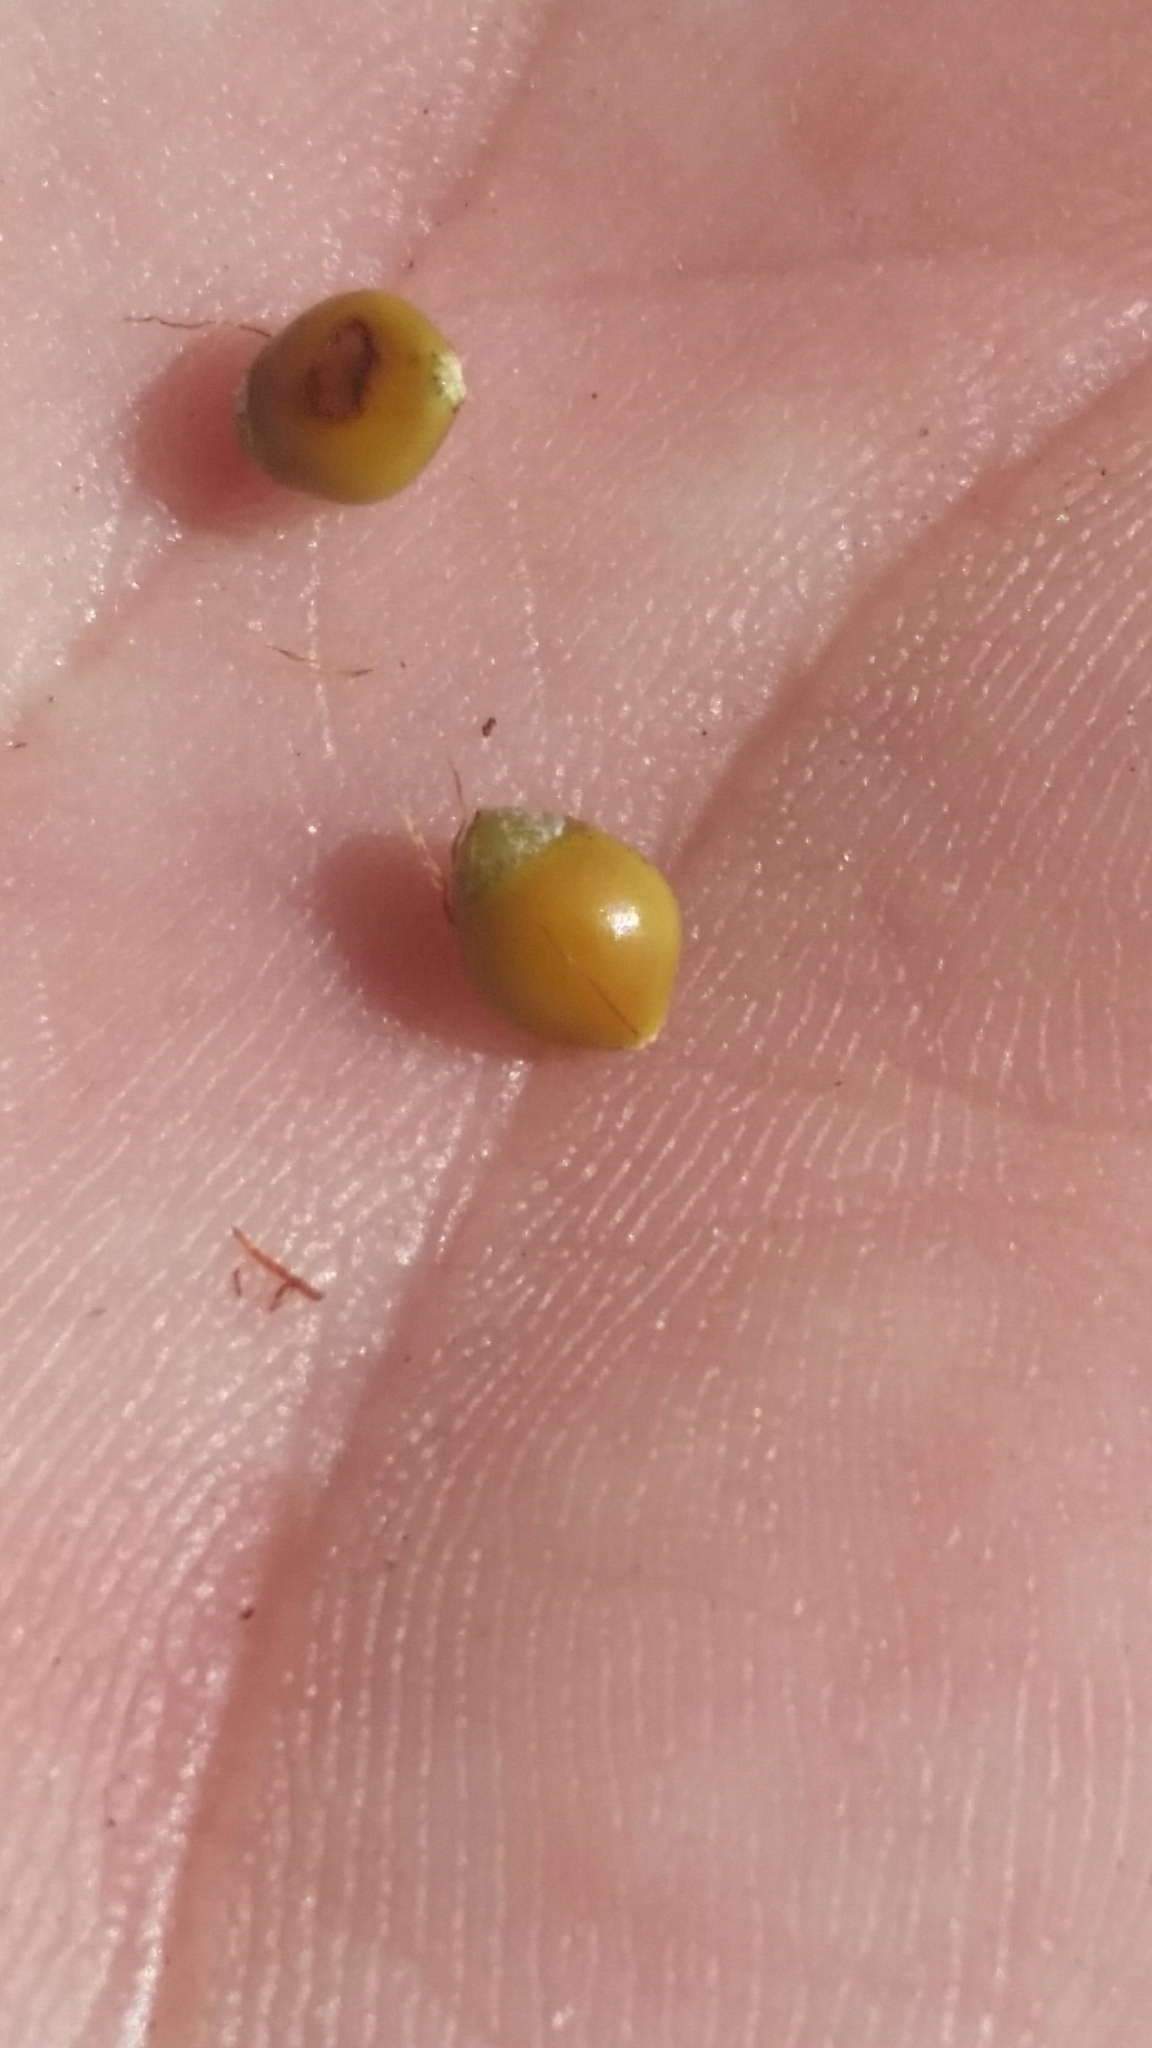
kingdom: Plantae
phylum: Tracheophyta
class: Liliopsida
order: Poales
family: Cyperaceae
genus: Rhynchospora
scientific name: Rhynchospora megalocarpa
